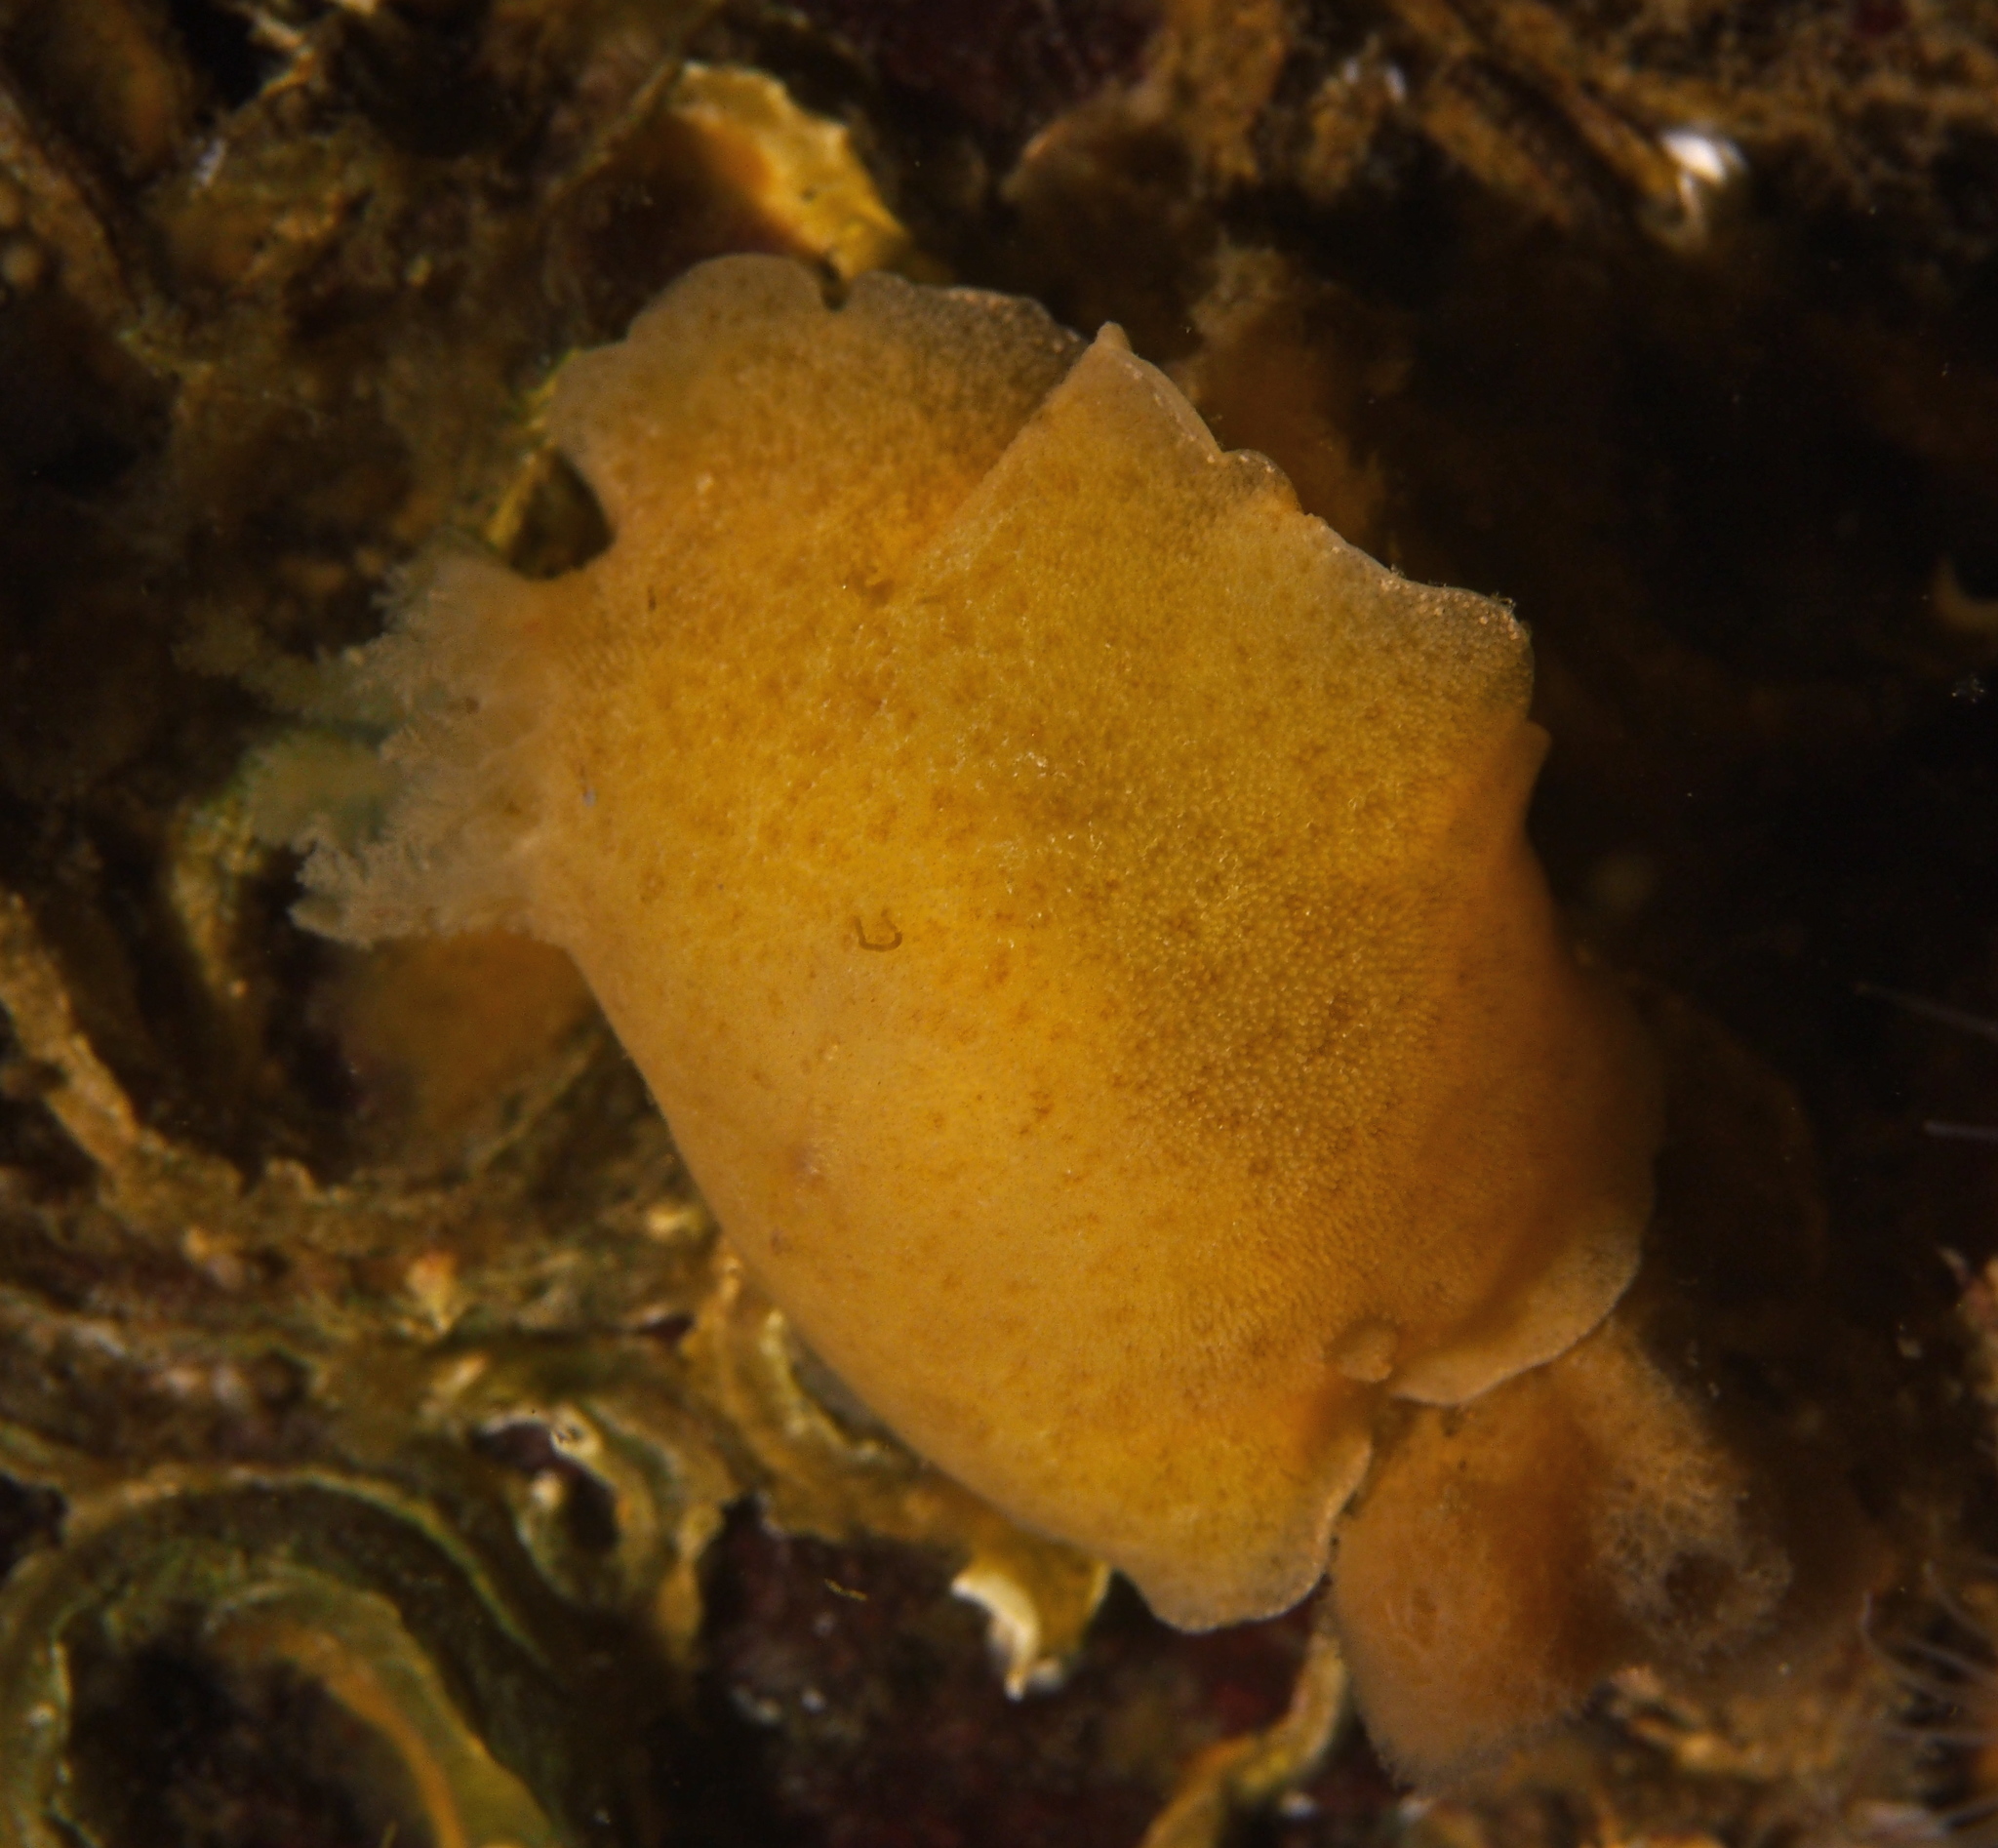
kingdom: Animalia
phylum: Mollusca
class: Gastropoda
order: Nudibranchia
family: Discodorididae
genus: Jorunna
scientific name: Jorunna tomentosa
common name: Grey sea slug
